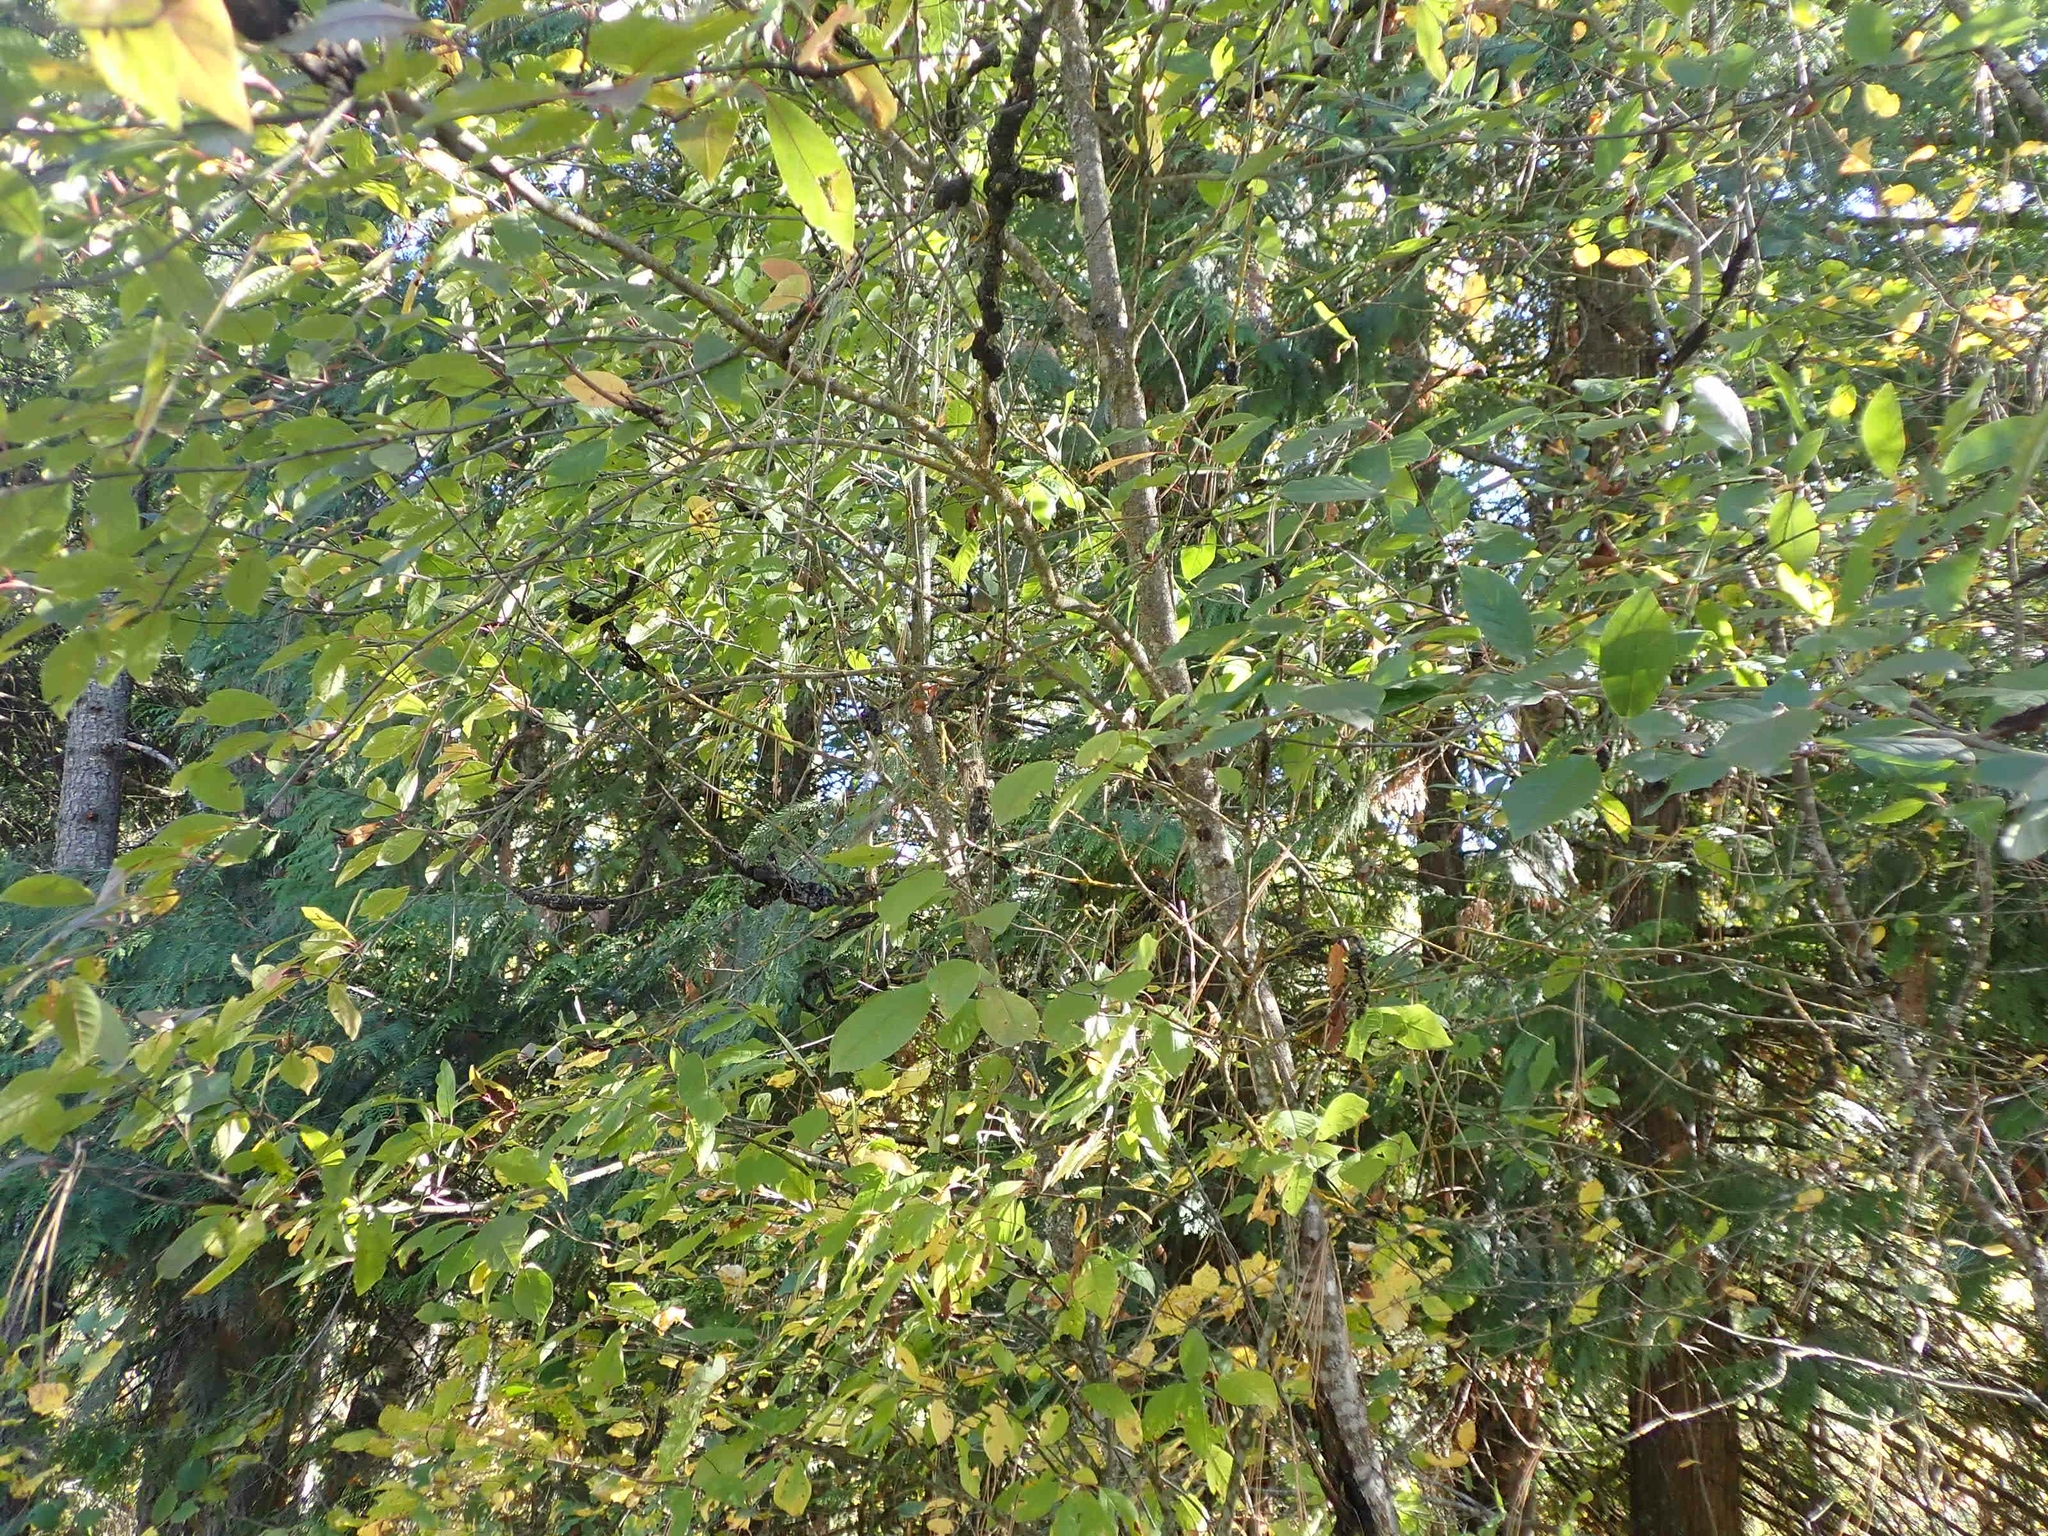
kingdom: Plantae
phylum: Tracheophyta
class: Magnoliopsida
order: Rosales
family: Rosaceae
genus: Prunus
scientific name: Prunus virginiana
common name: Chokecherry
